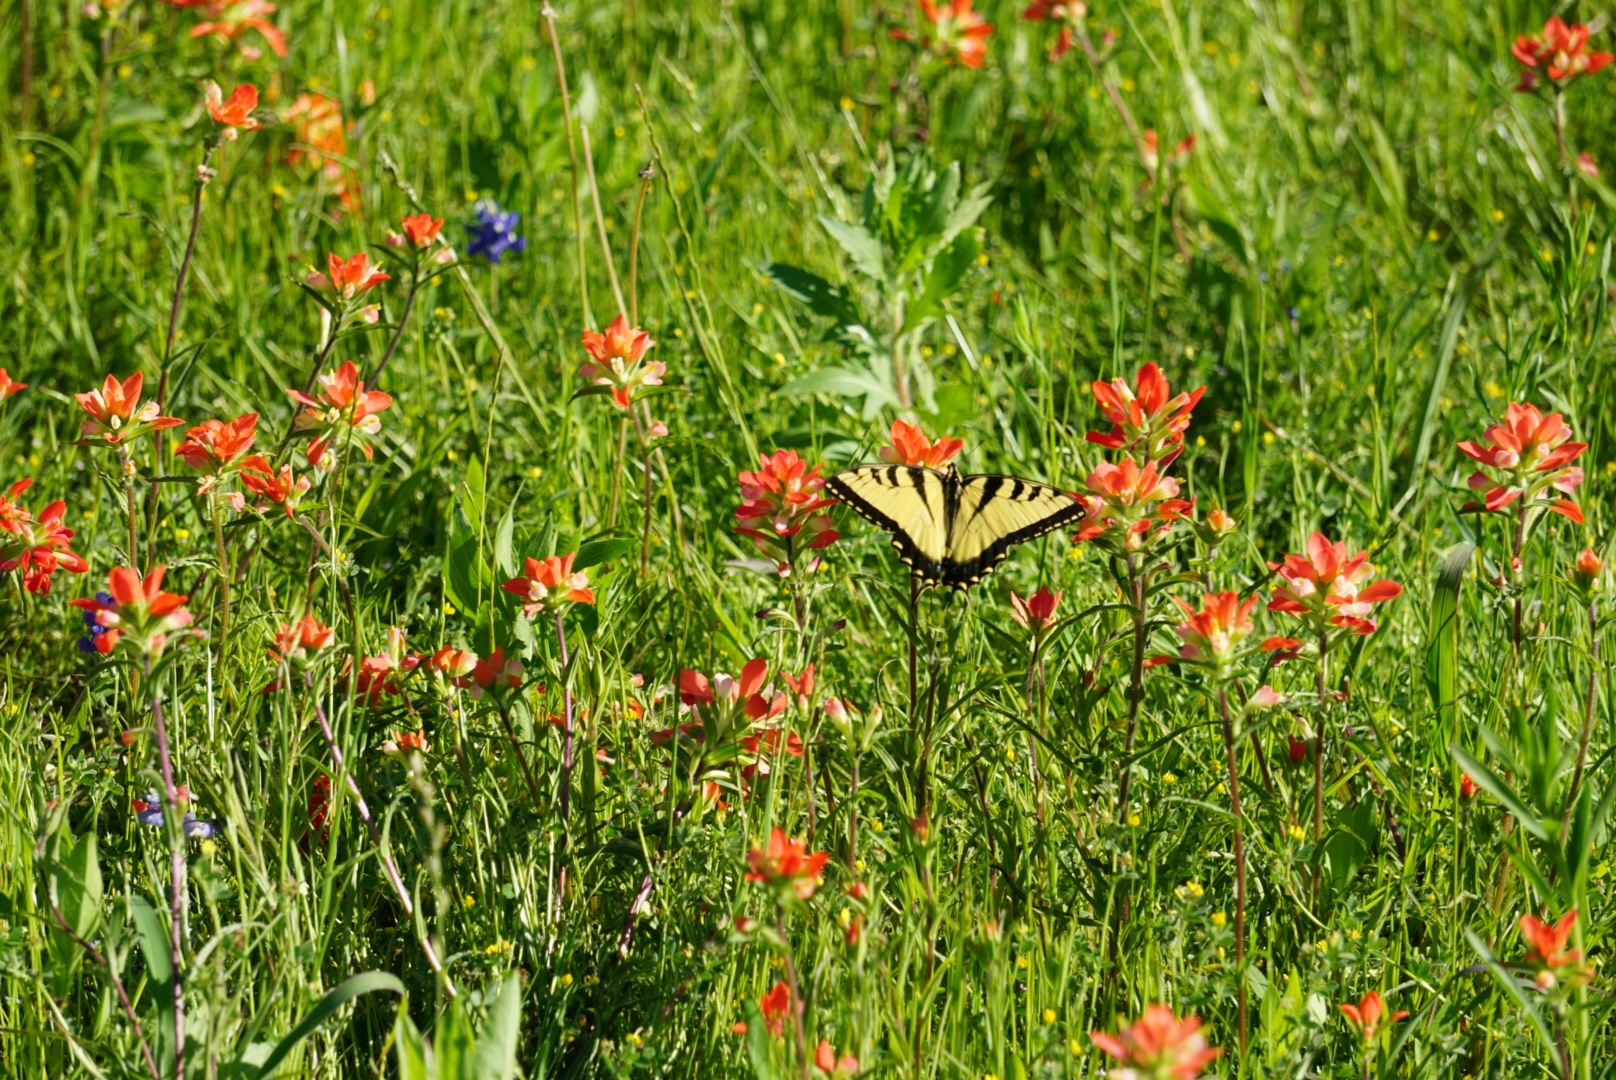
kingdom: Animalia
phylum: Arthropoda
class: Insecta
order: Lepidoptera
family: Papilionidae
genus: Papilio
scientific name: Papilio glaucus
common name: Tiger swallowtail
